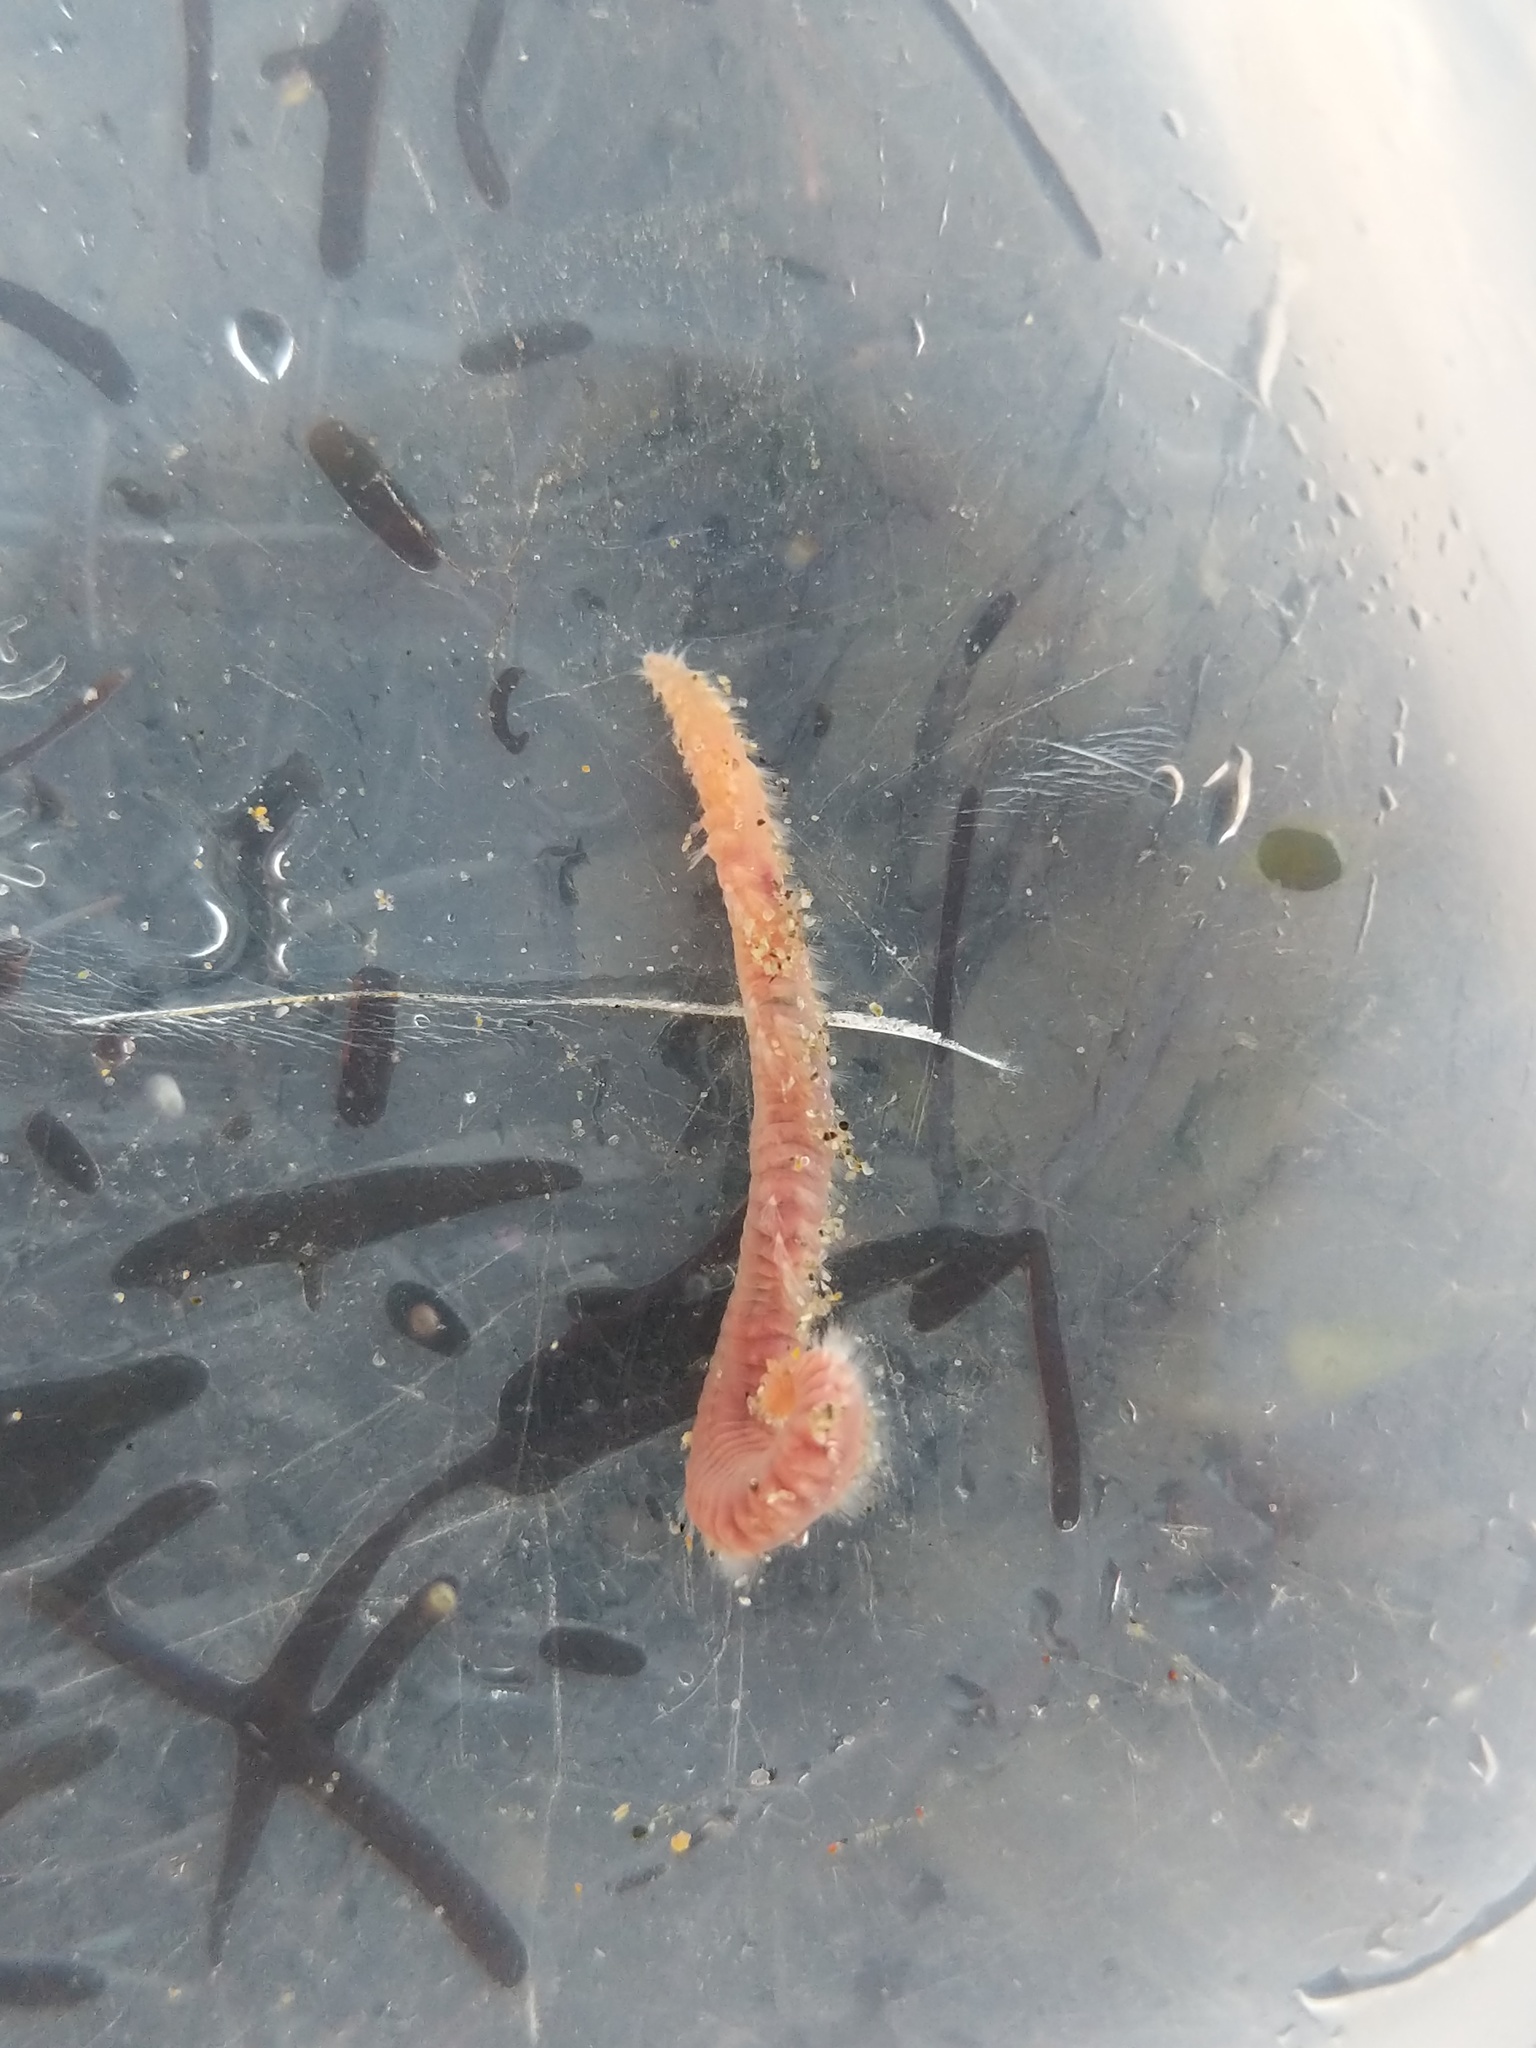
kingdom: Animalia
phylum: Annelida
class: Polychaeta
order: Amphinomida
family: Amphinomidae
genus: Pareurythoe
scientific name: Pareurythoe californica
